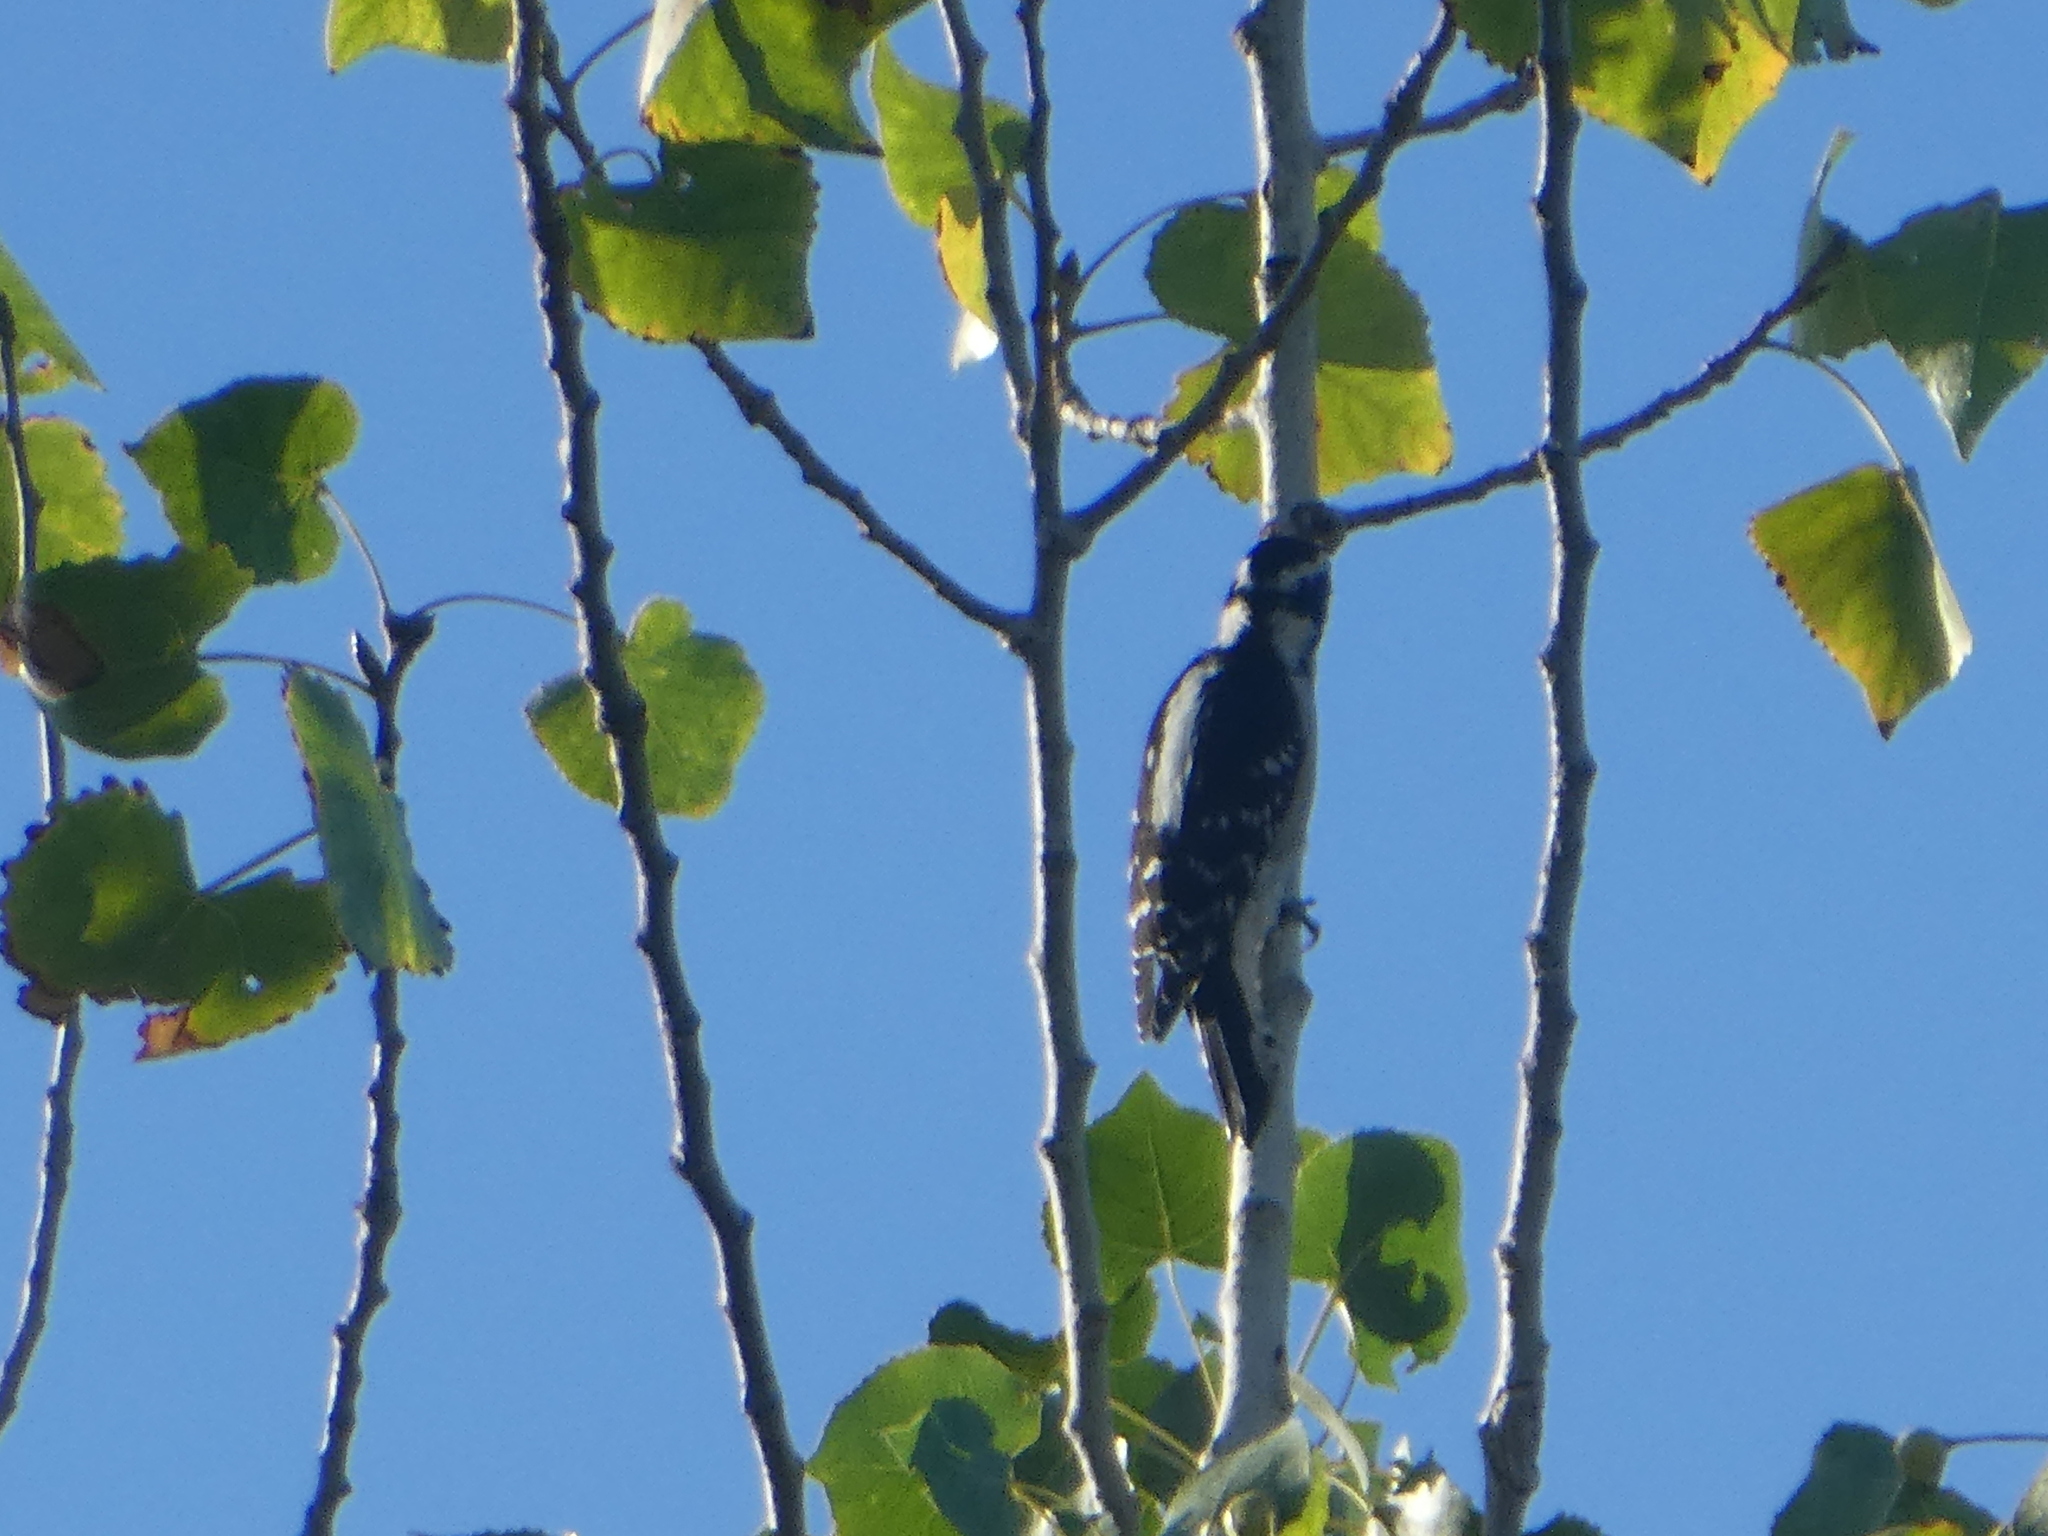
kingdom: Animalia
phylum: Chordata
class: Aves
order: Piciformes
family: Picidae
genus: Dryobates
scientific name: Dryobates pubescens
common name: Downy woodpecker
